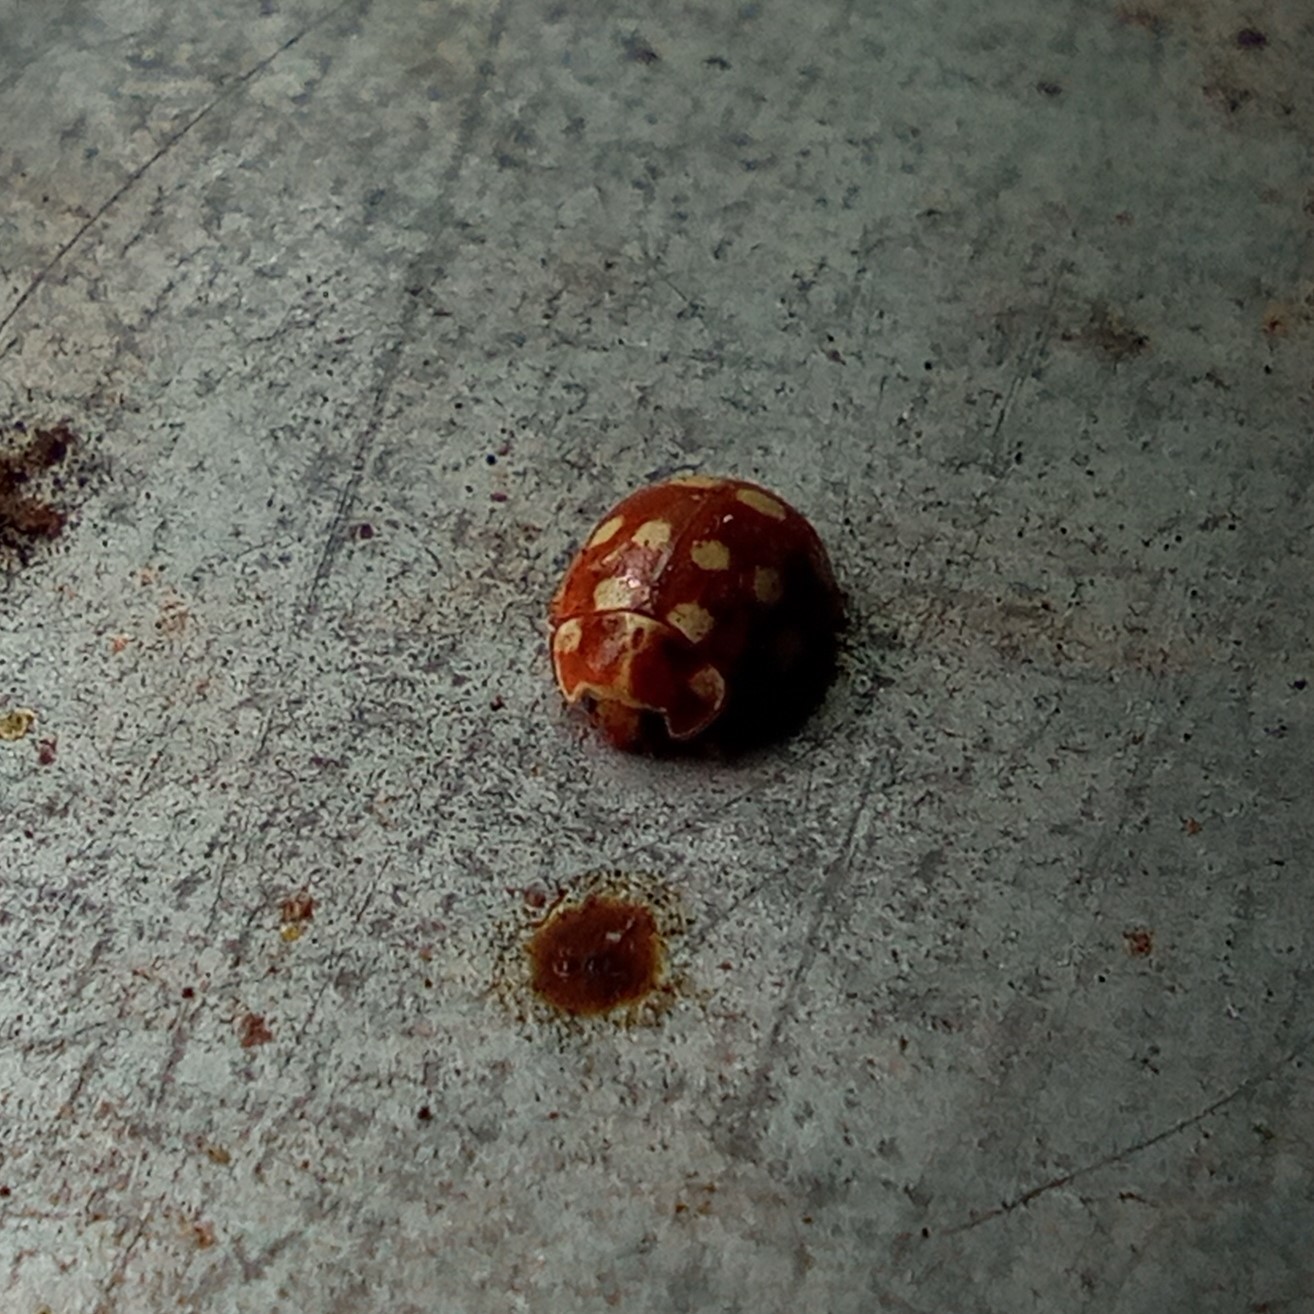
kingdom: Animalia
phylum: Arthropoda
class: Insecta
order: Coleoptera
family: Coccinellidae
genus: Calvia
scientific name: Calvia quatuordecimguttata
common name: Cream-spot ladybird
